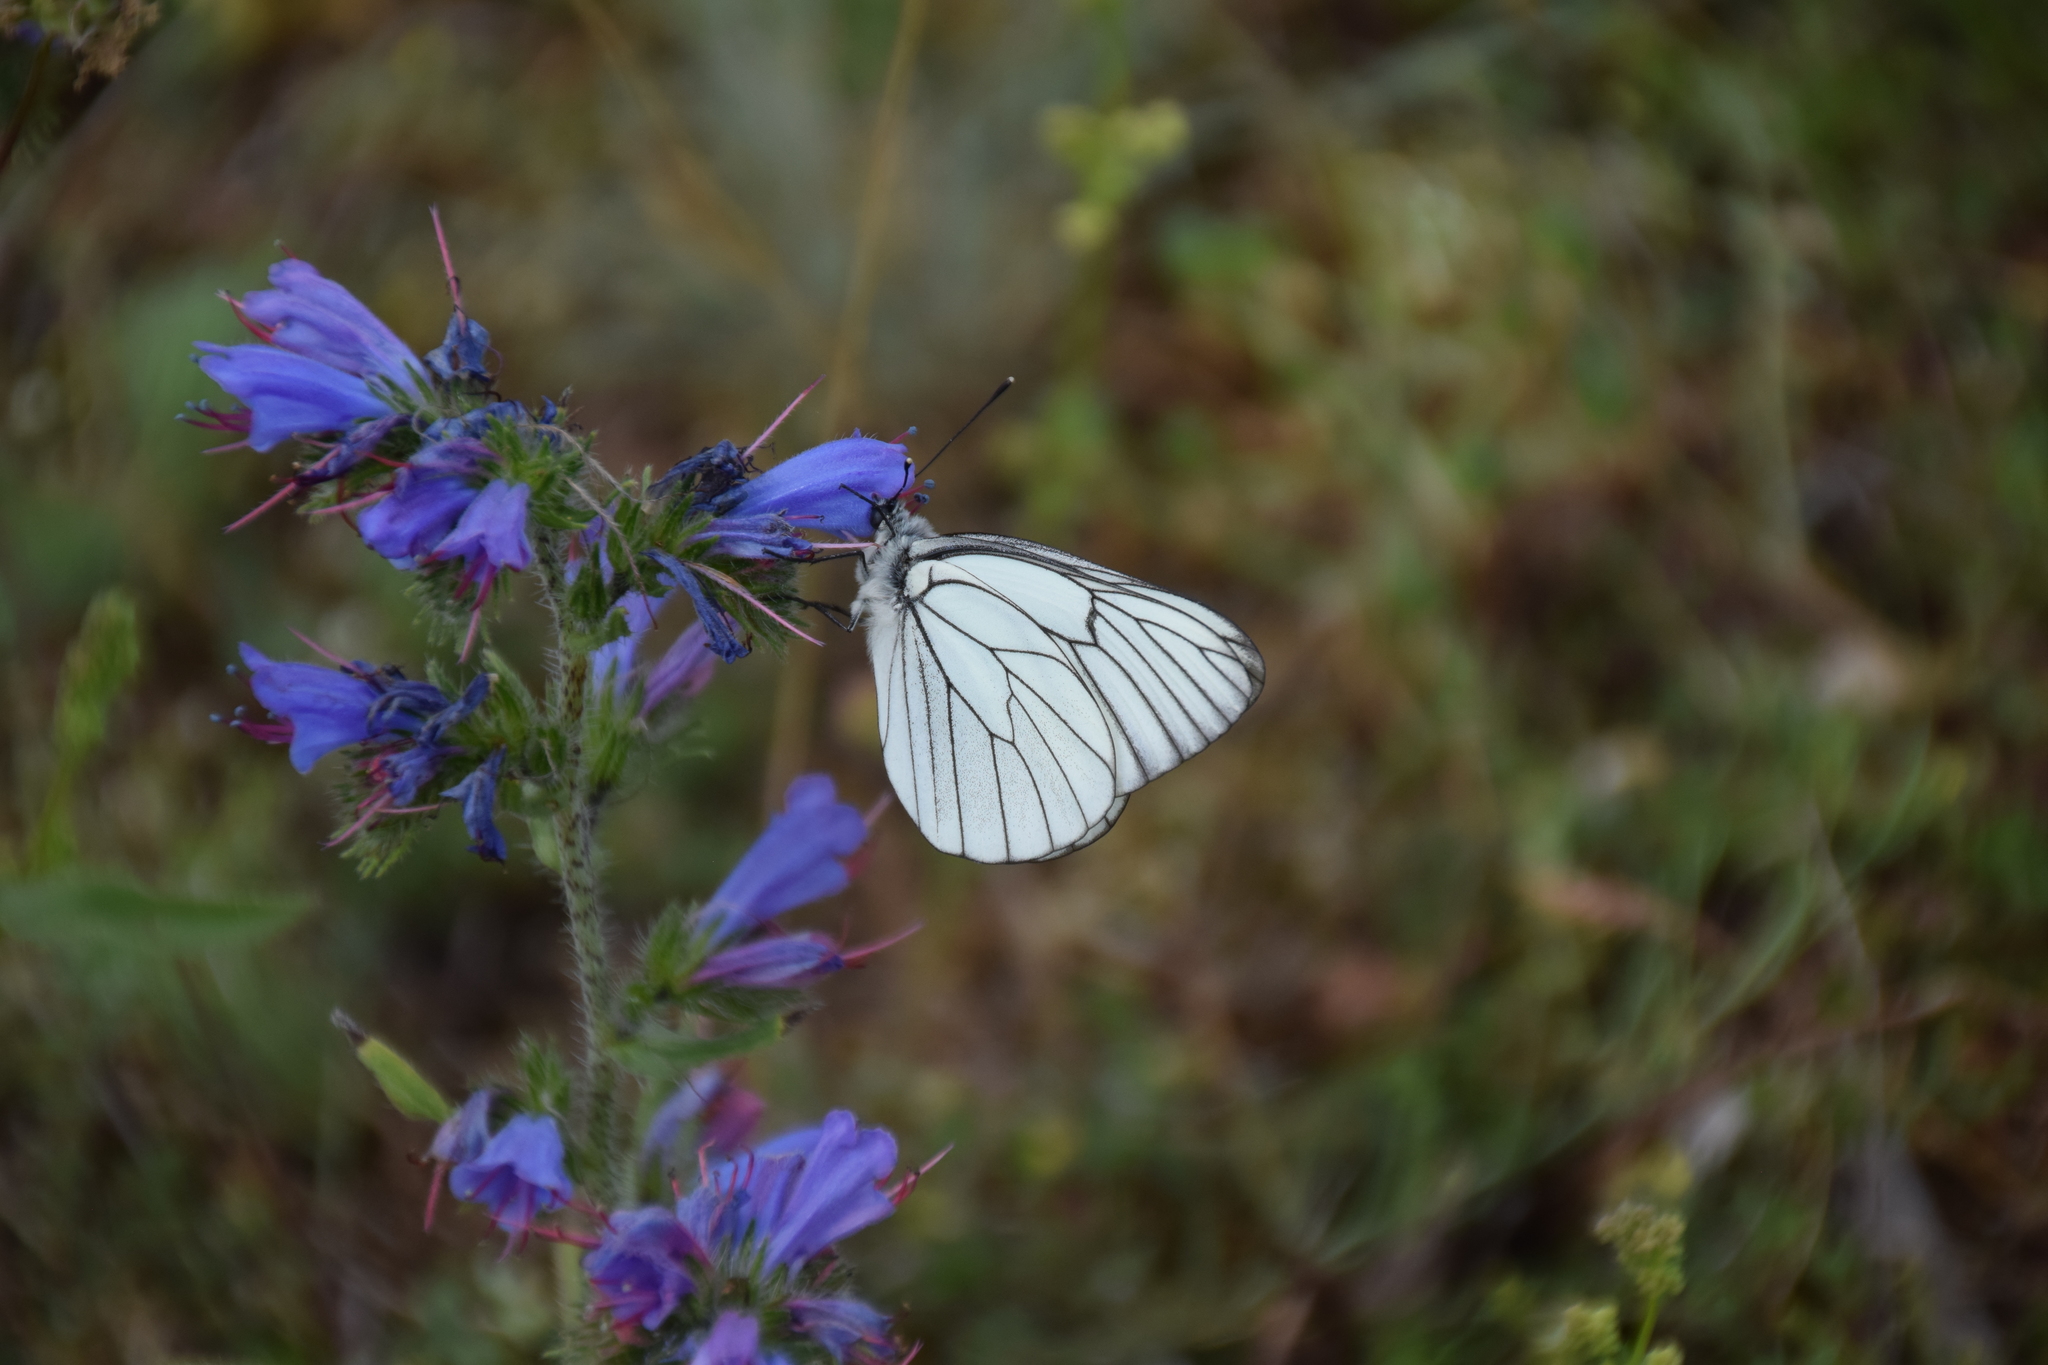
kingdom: Animalia
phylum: Arthropoda
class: Insecta
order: Lepidoptera
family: Pieridae
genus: Aporia
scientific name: Aporia crataegi
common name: Black-veined white
